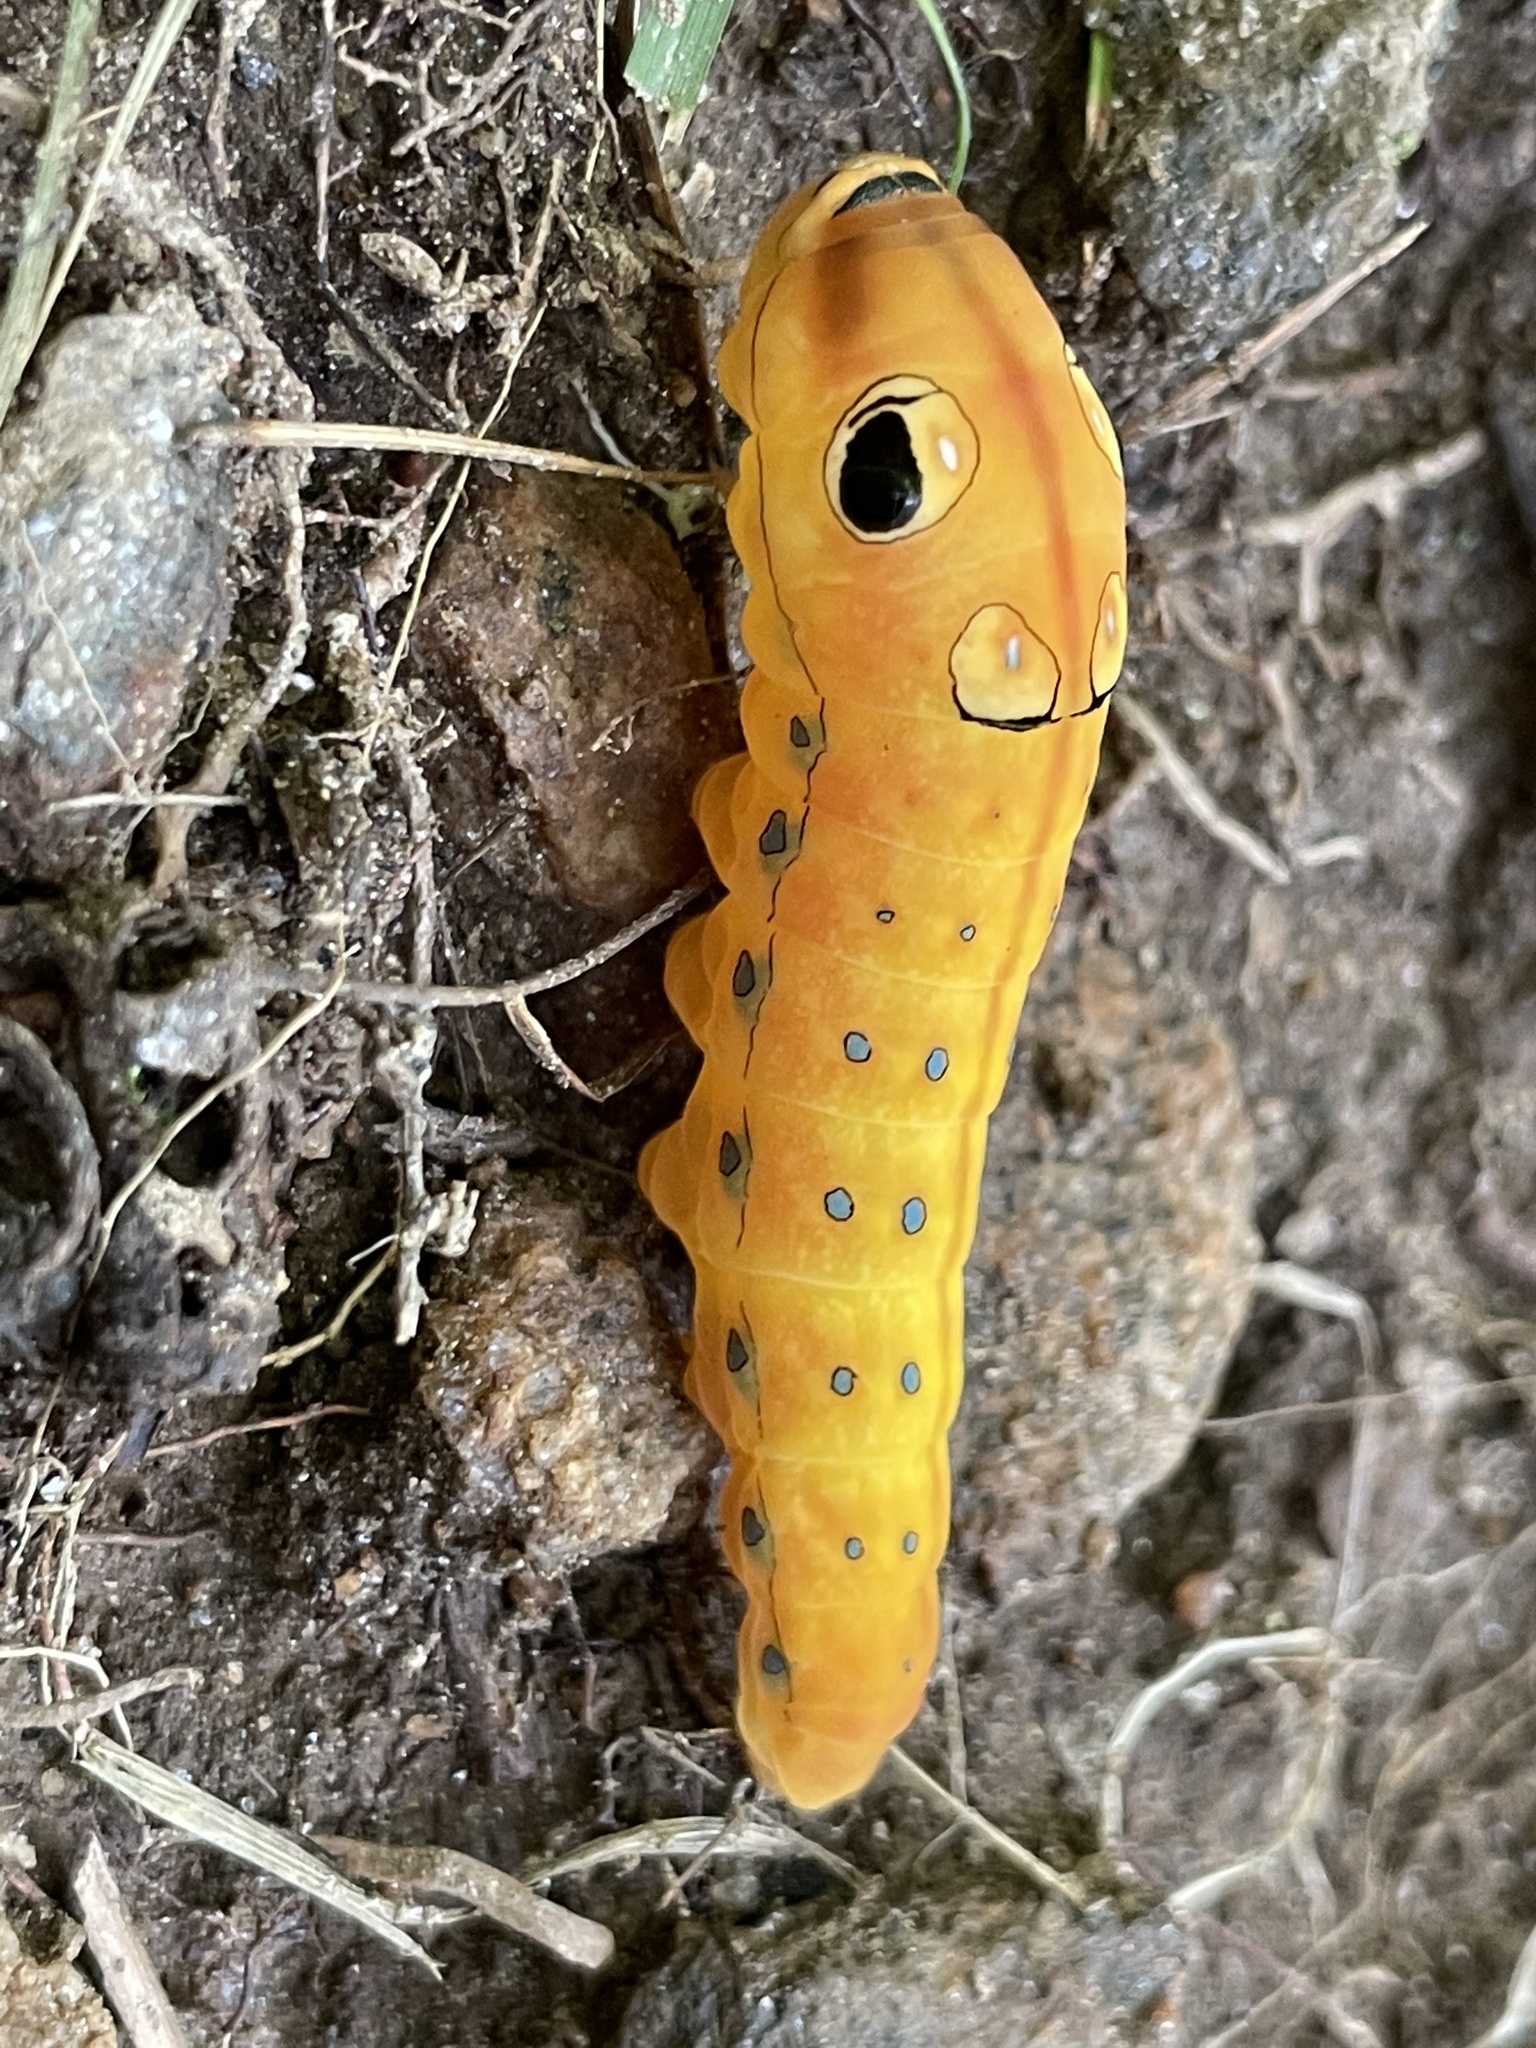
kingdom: Animalia
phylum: Arthropoda
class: Insecta
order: Lepidoptera
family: Papilionidae
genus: Papilio
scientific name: Papilio troilus
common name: Spicebush swallowtail
